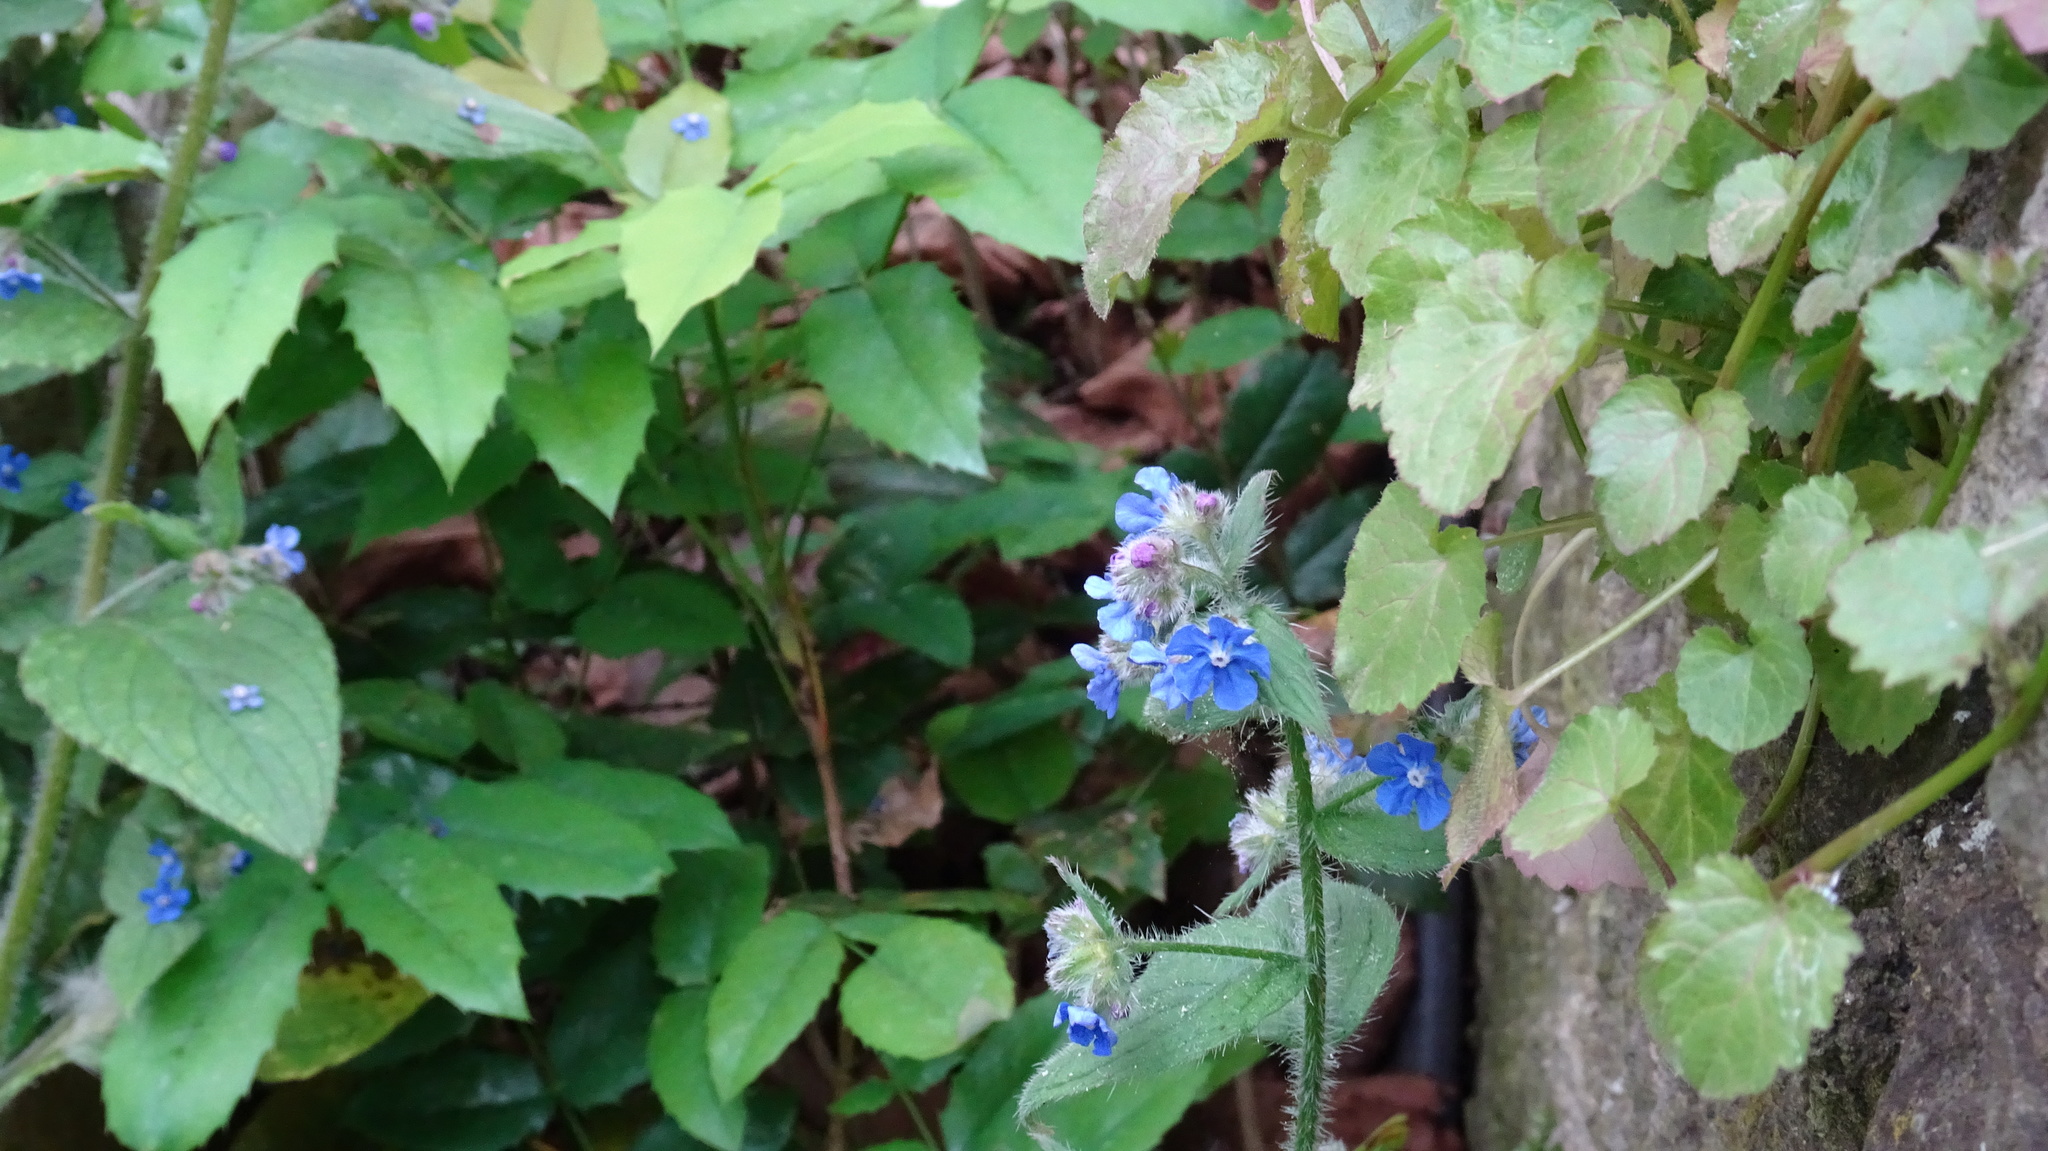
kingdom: Plantae
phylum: Tracheophyta
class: Magnoliopsida
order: Boraginales
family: Boraginaceae
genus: Pentaglottis
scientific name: Pentaglottis sempervirens
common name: Green alkanet
